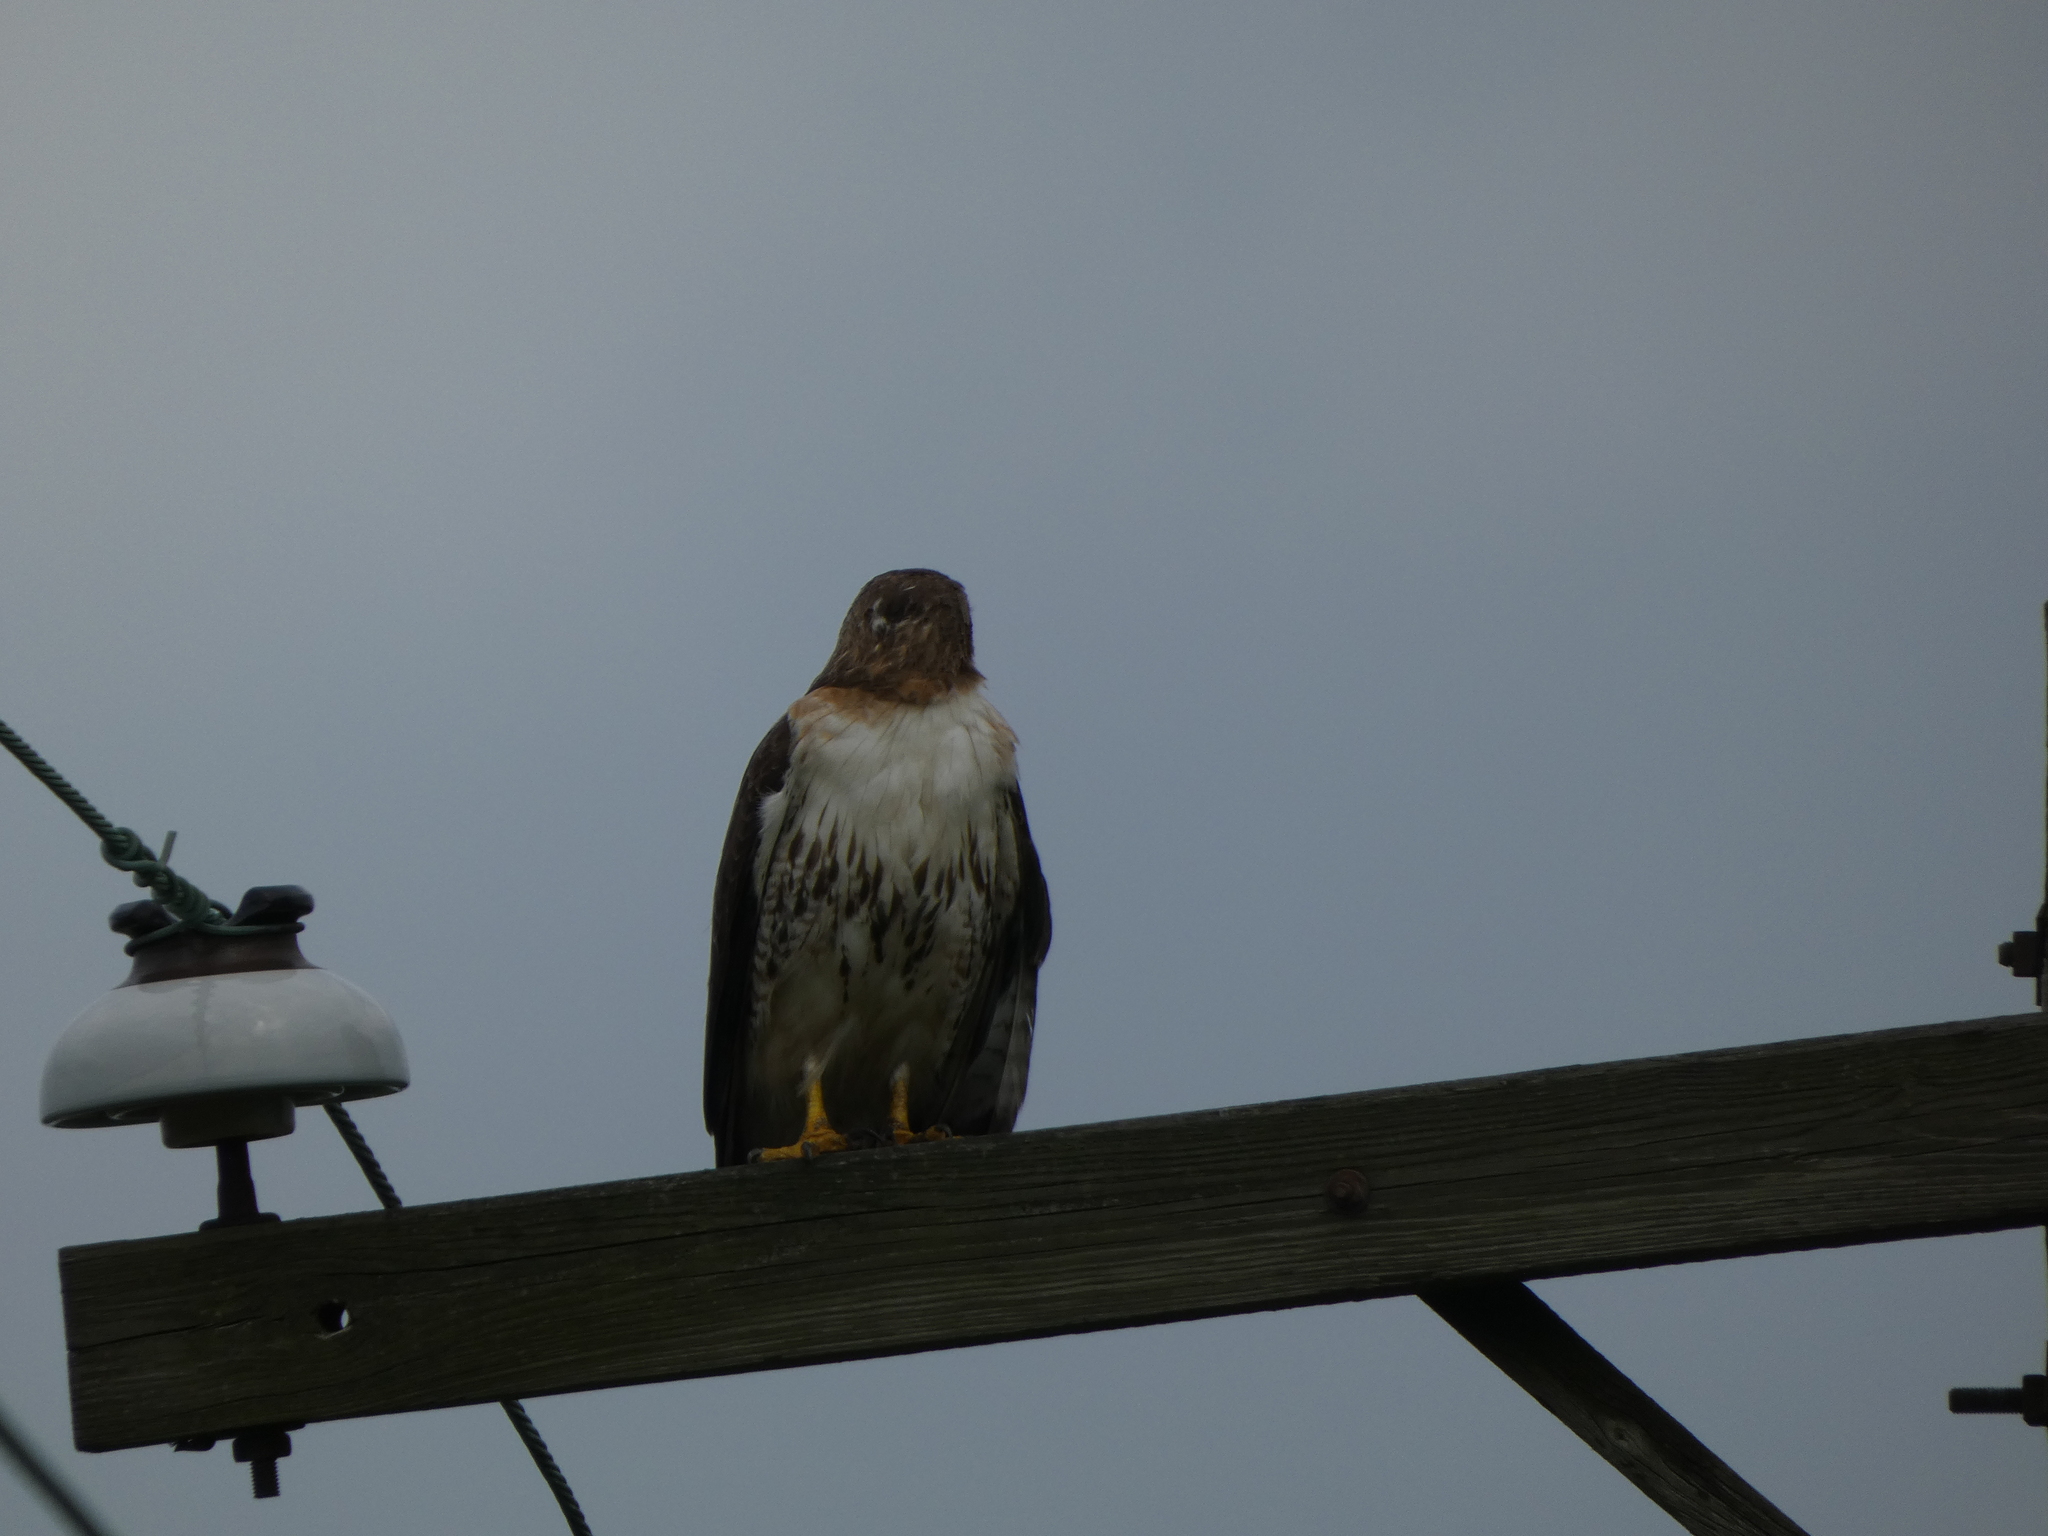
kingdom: Animalia
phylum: Chordata
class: Aves
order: Accipitriformes
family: Accipitridae
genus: Buteo
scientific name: Buteo jamaicensis
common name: Red-tailed hawk
